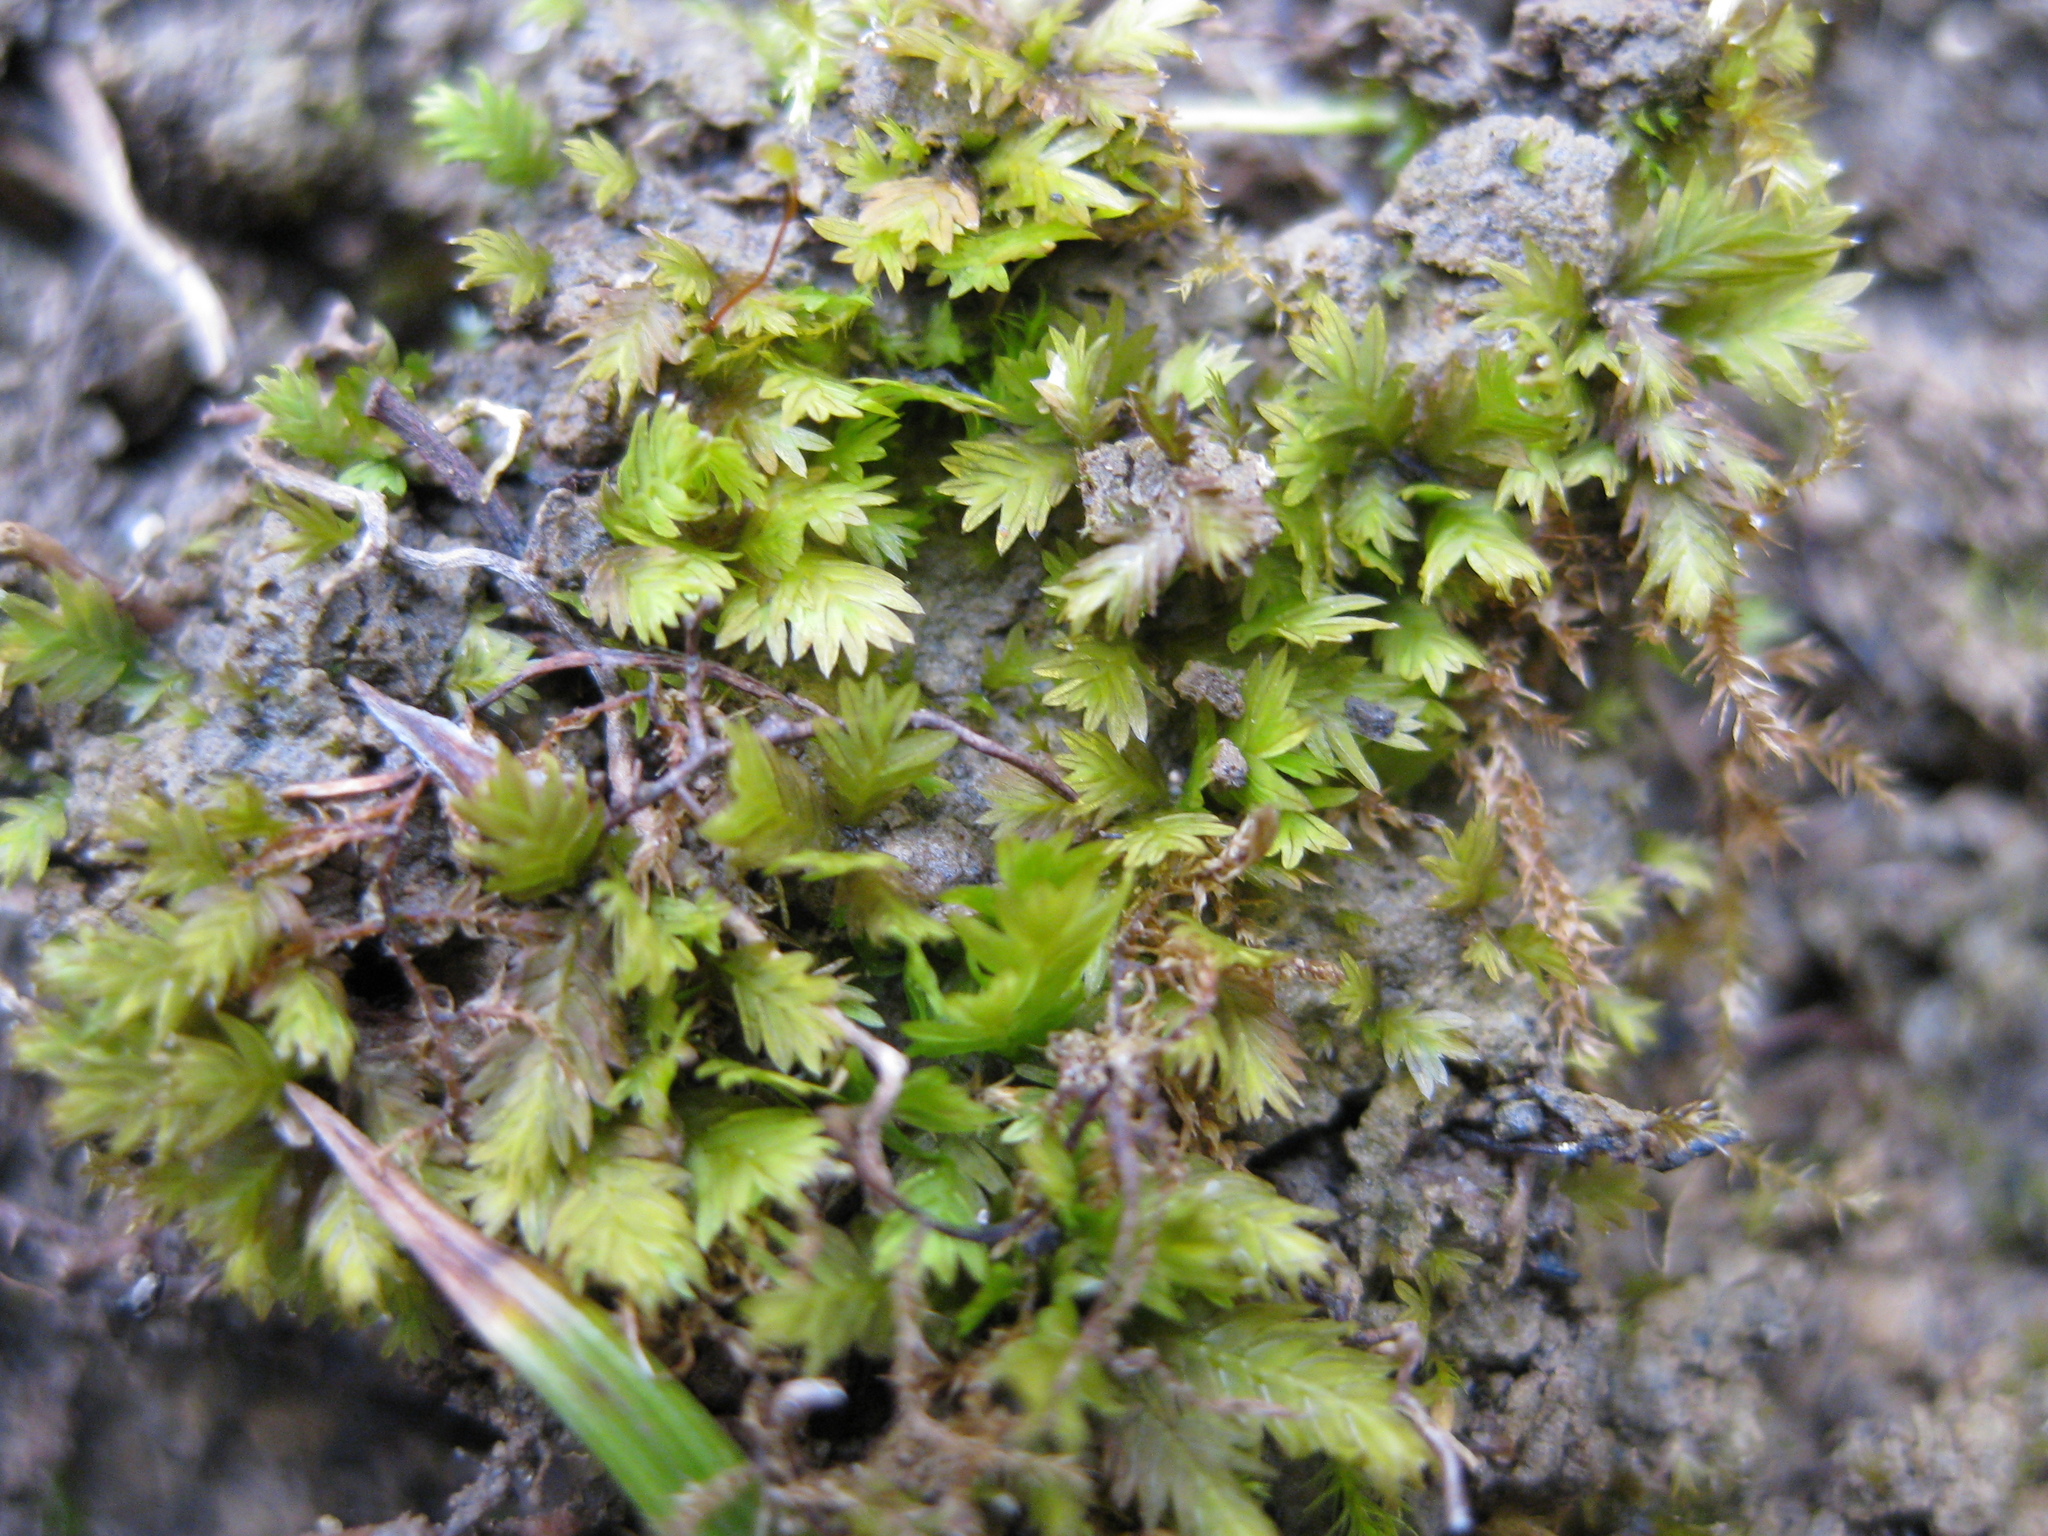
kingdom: Plantae
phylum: Bryophyta
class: Bryopsida
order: Dicranales
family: Fissidentaceae
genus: Fissidens
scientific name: Fissidens taxifolius
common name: Yew-leaved pocket moss
